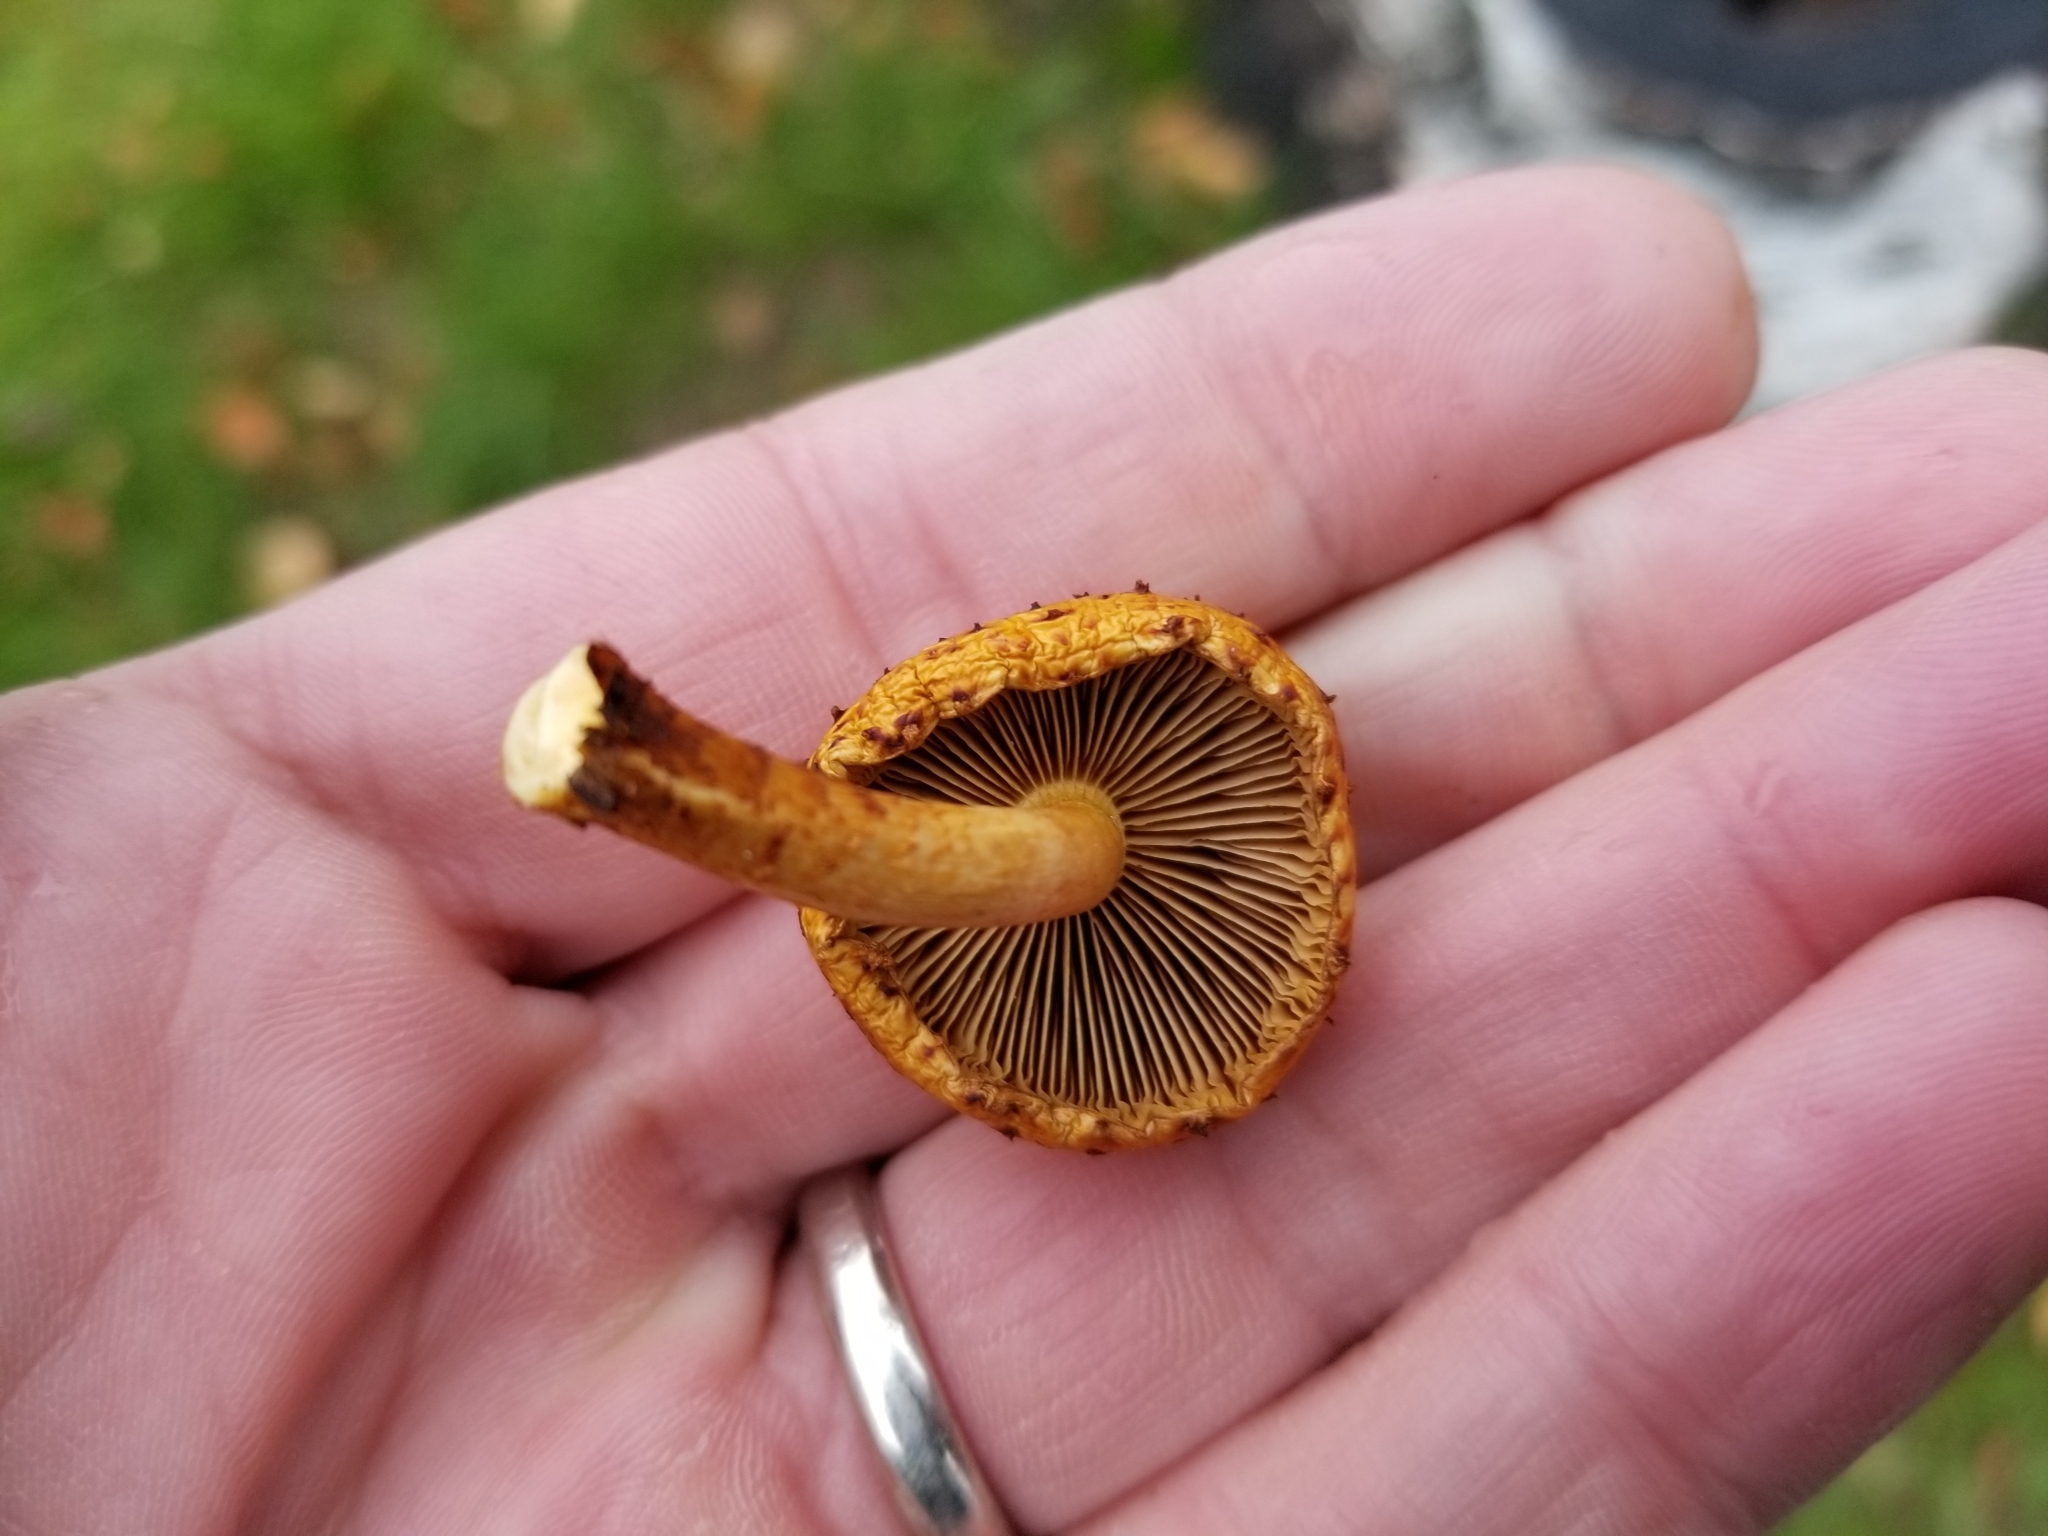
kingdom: Fungi
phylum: Basidiomycota
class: Agaricomycetes
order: Agaricales
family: Strophariaceae
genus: Pholiota
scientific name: Pholiota aurivella
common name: Golden scalycap
